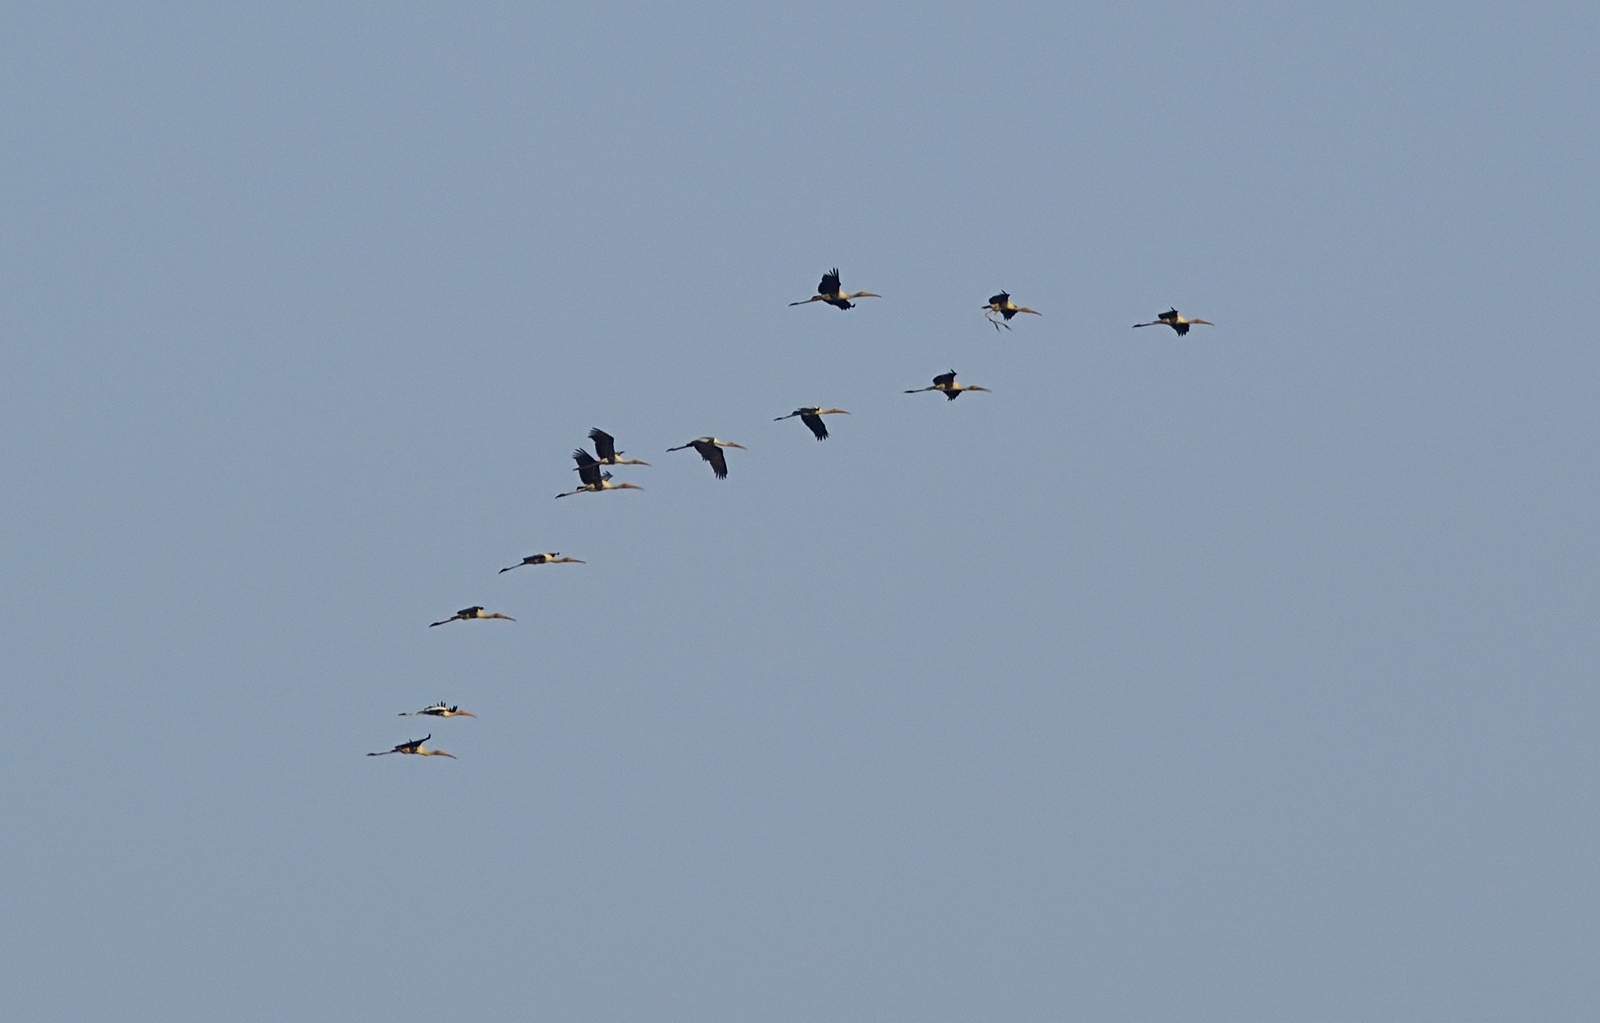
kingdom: Animalia
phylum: Chordata
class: Aves
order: Ciconiiformes
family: Ciconiidae
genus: Mycteria
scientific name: Mycteria leucocephala
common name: Painted stork
